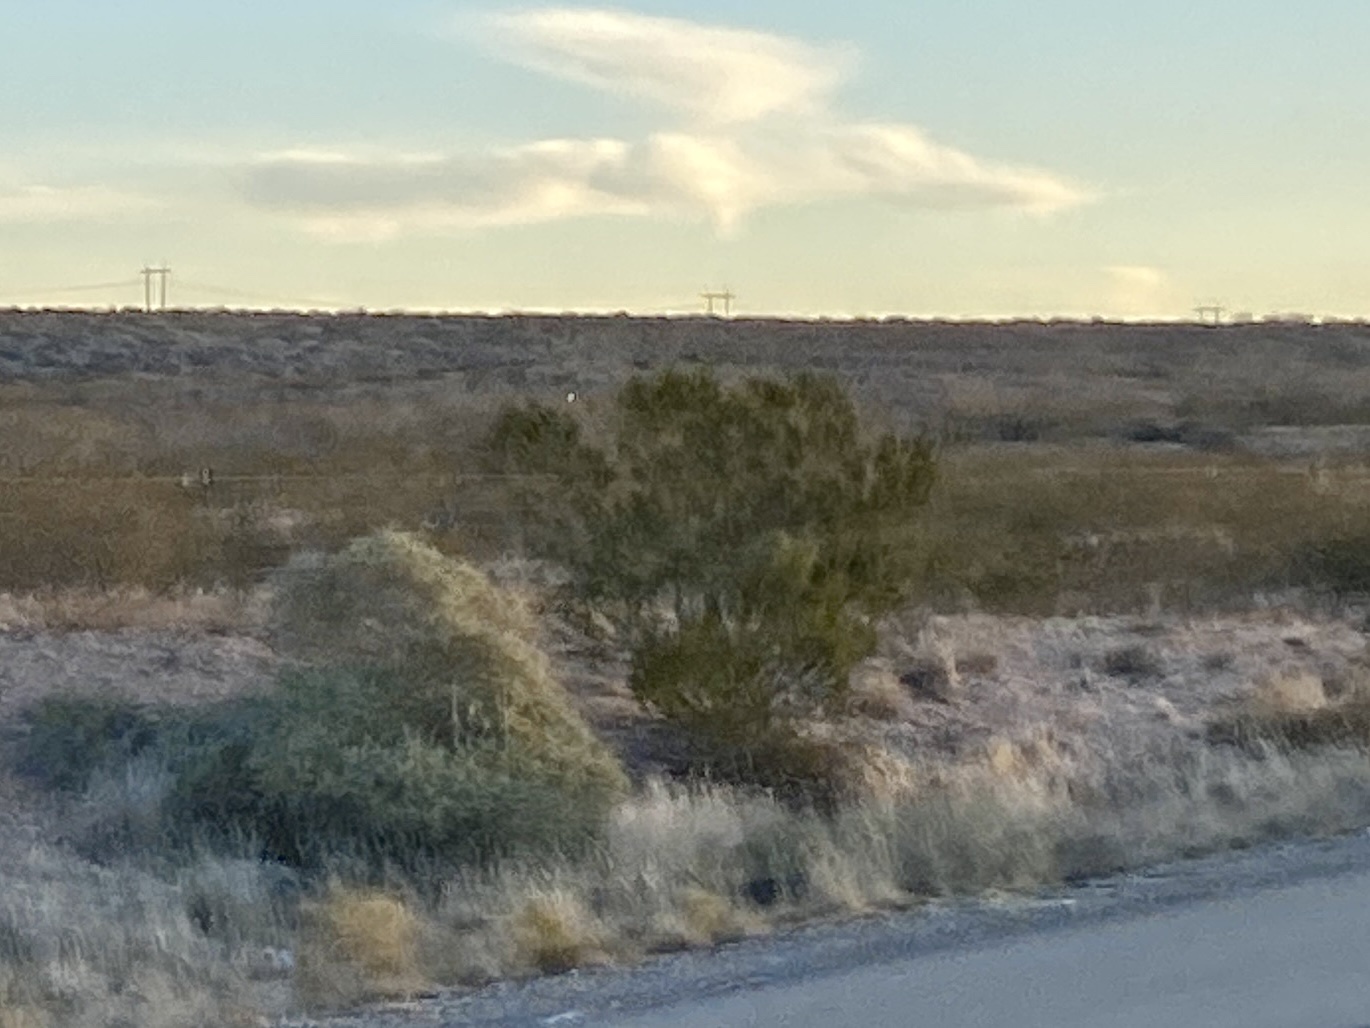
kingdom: Plantae
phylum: Tracheophyta
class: Magnoliopsida
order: Zygophyllales
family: Zygophyllaceae
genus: Larrea
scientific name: Larrea tridentata
